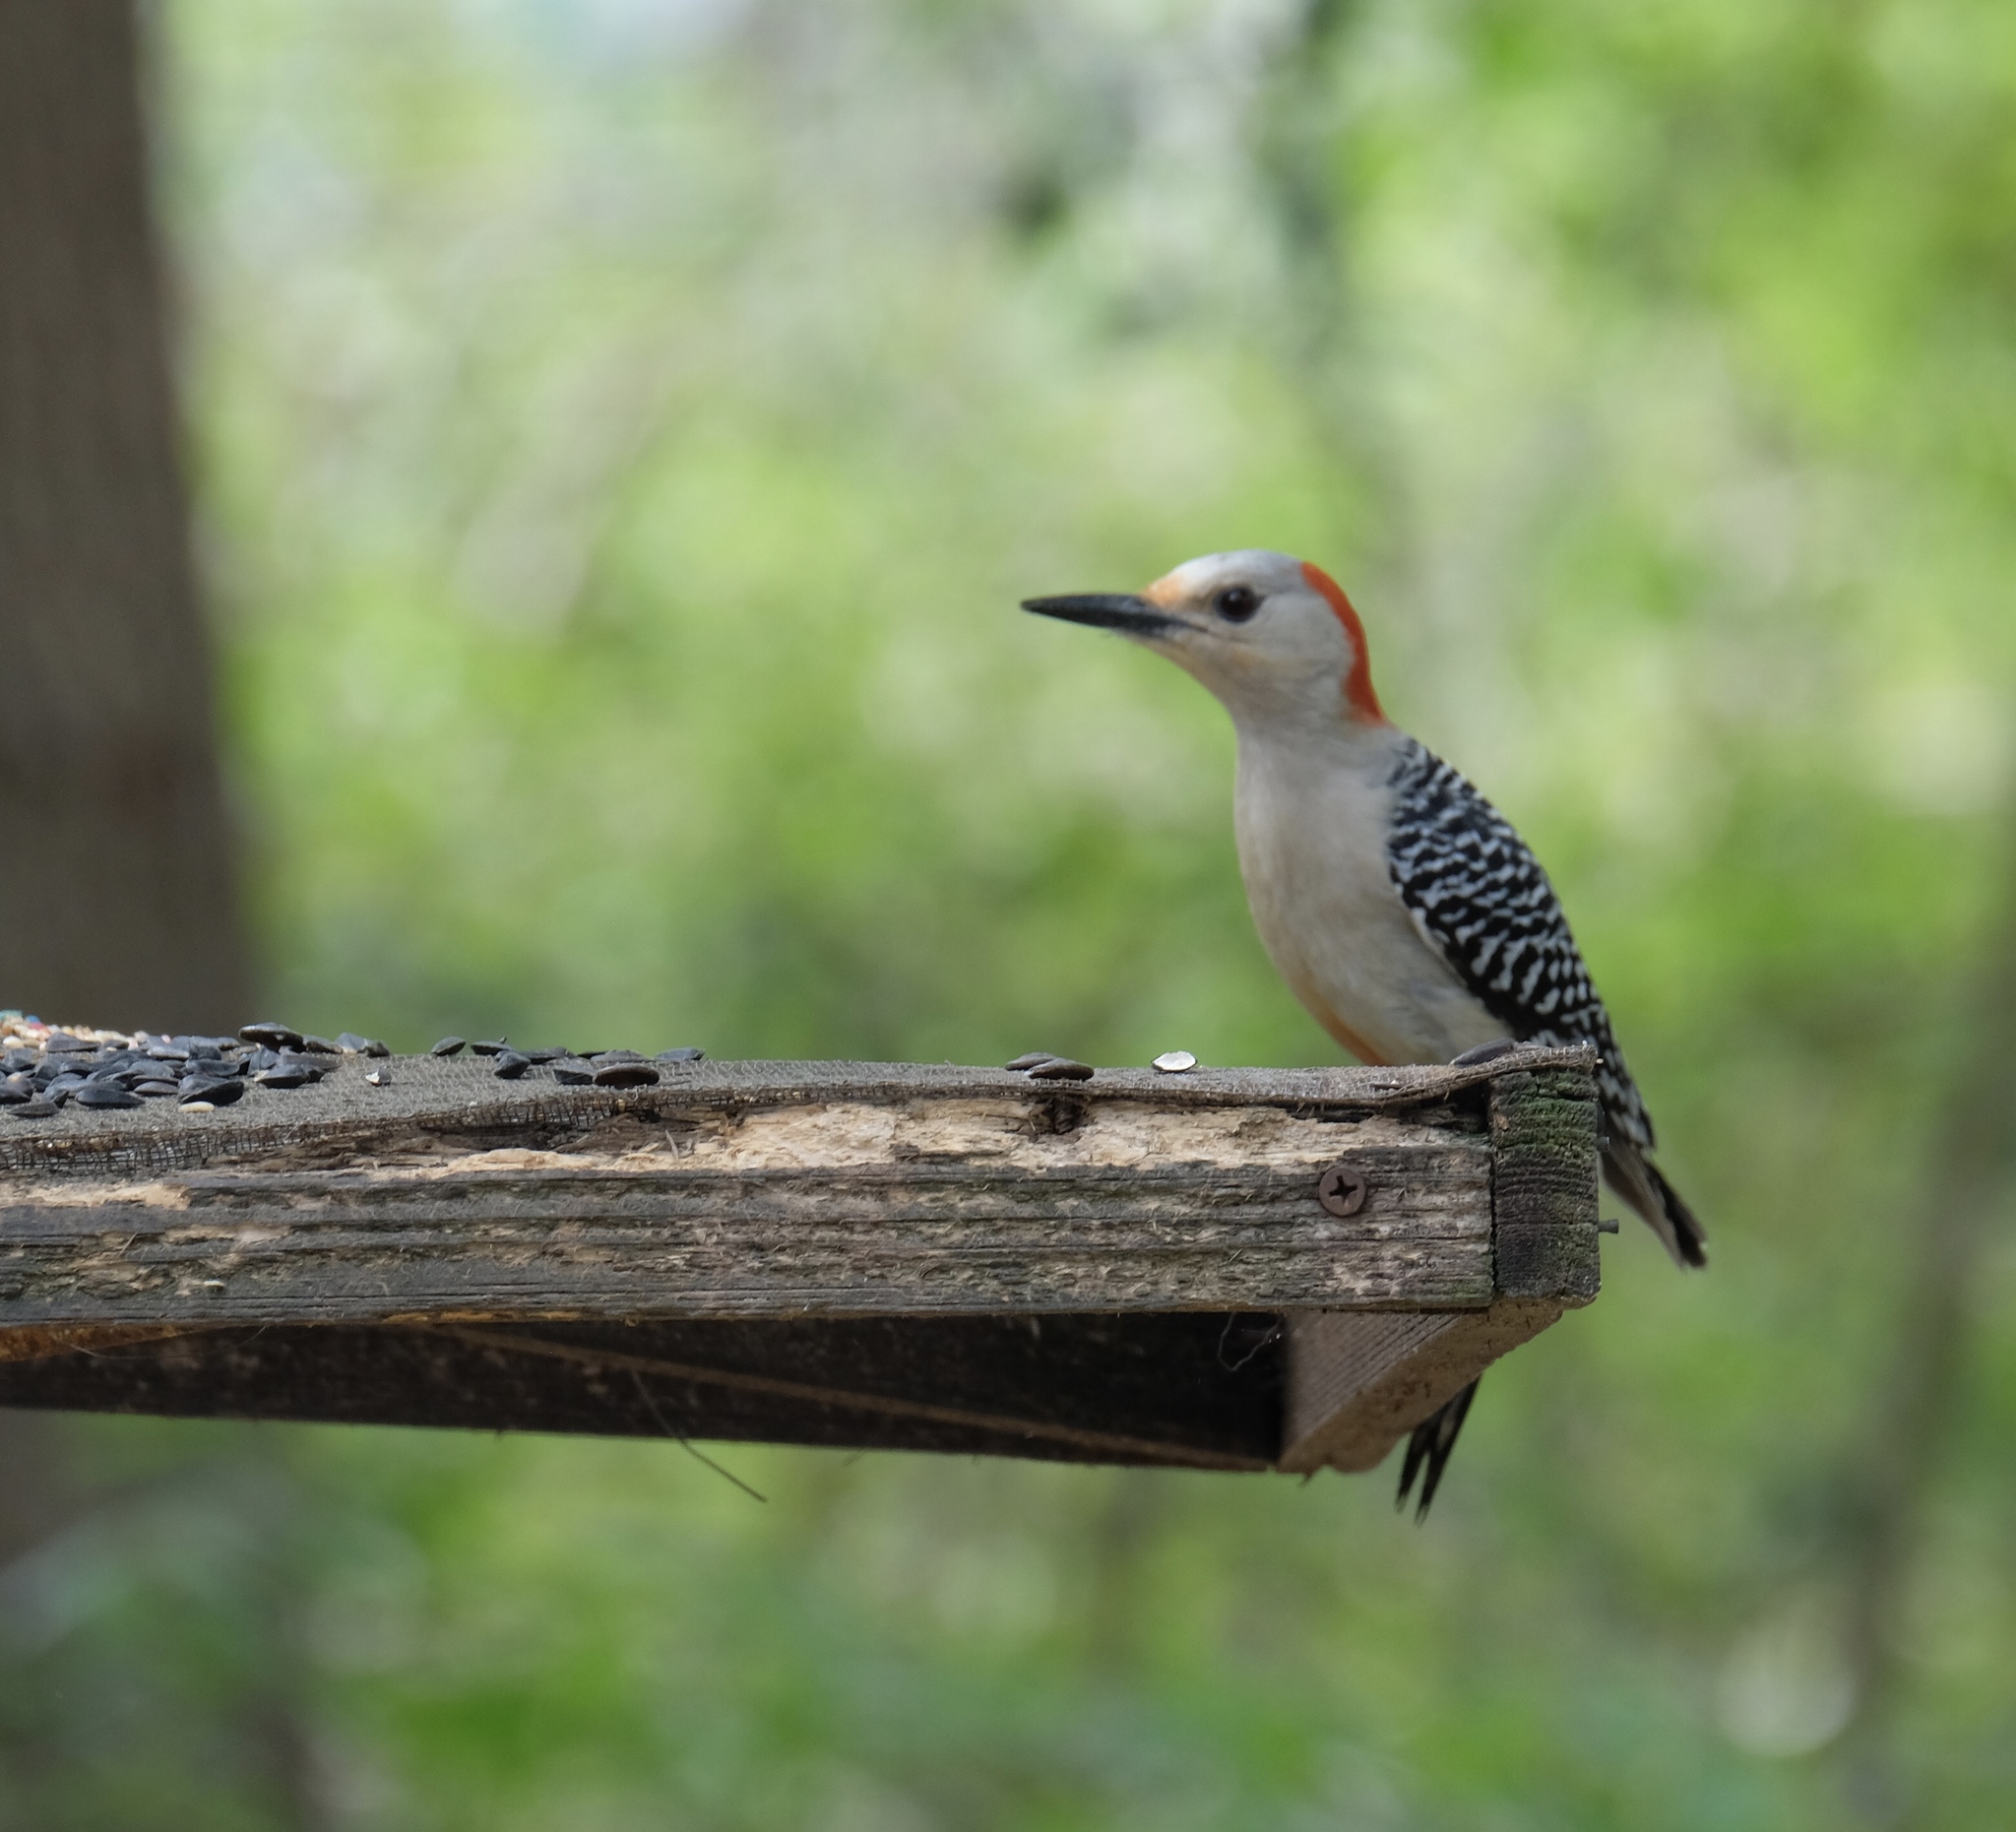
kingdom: Animalia
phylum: Chordata
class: Aves
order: Piciformes
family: Picidae
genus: Melanerpes
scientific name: Melanerpes carolinus
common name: Red-bellied woodpecker
